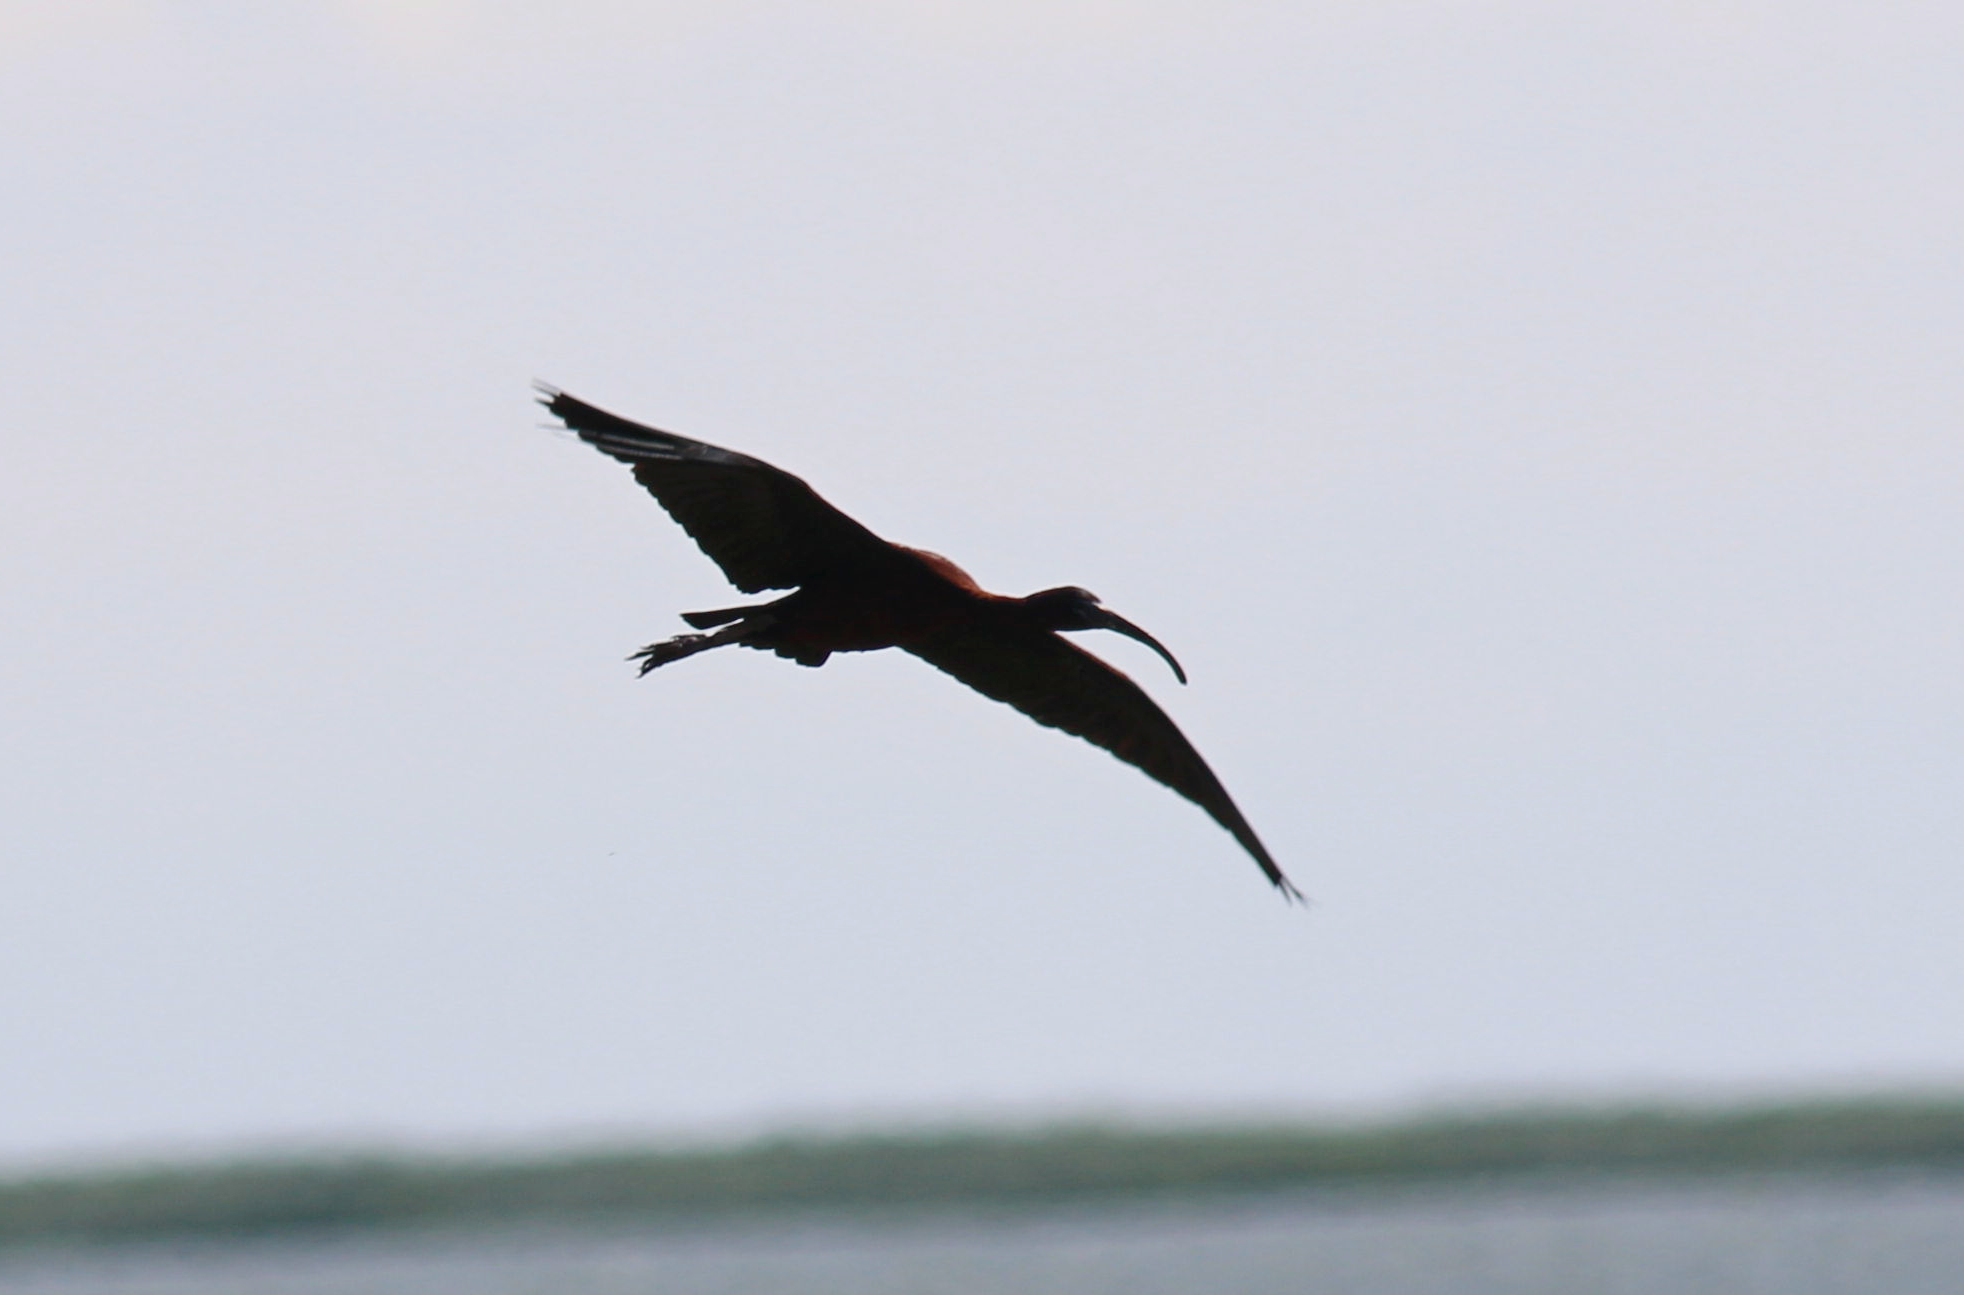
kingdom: Animalia
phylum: Chordata
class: Aves
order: Pelecaniformes
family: Threskiornithidae
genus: Plegadis
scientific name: Plegadis falcinellus
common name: Glossy ibis
